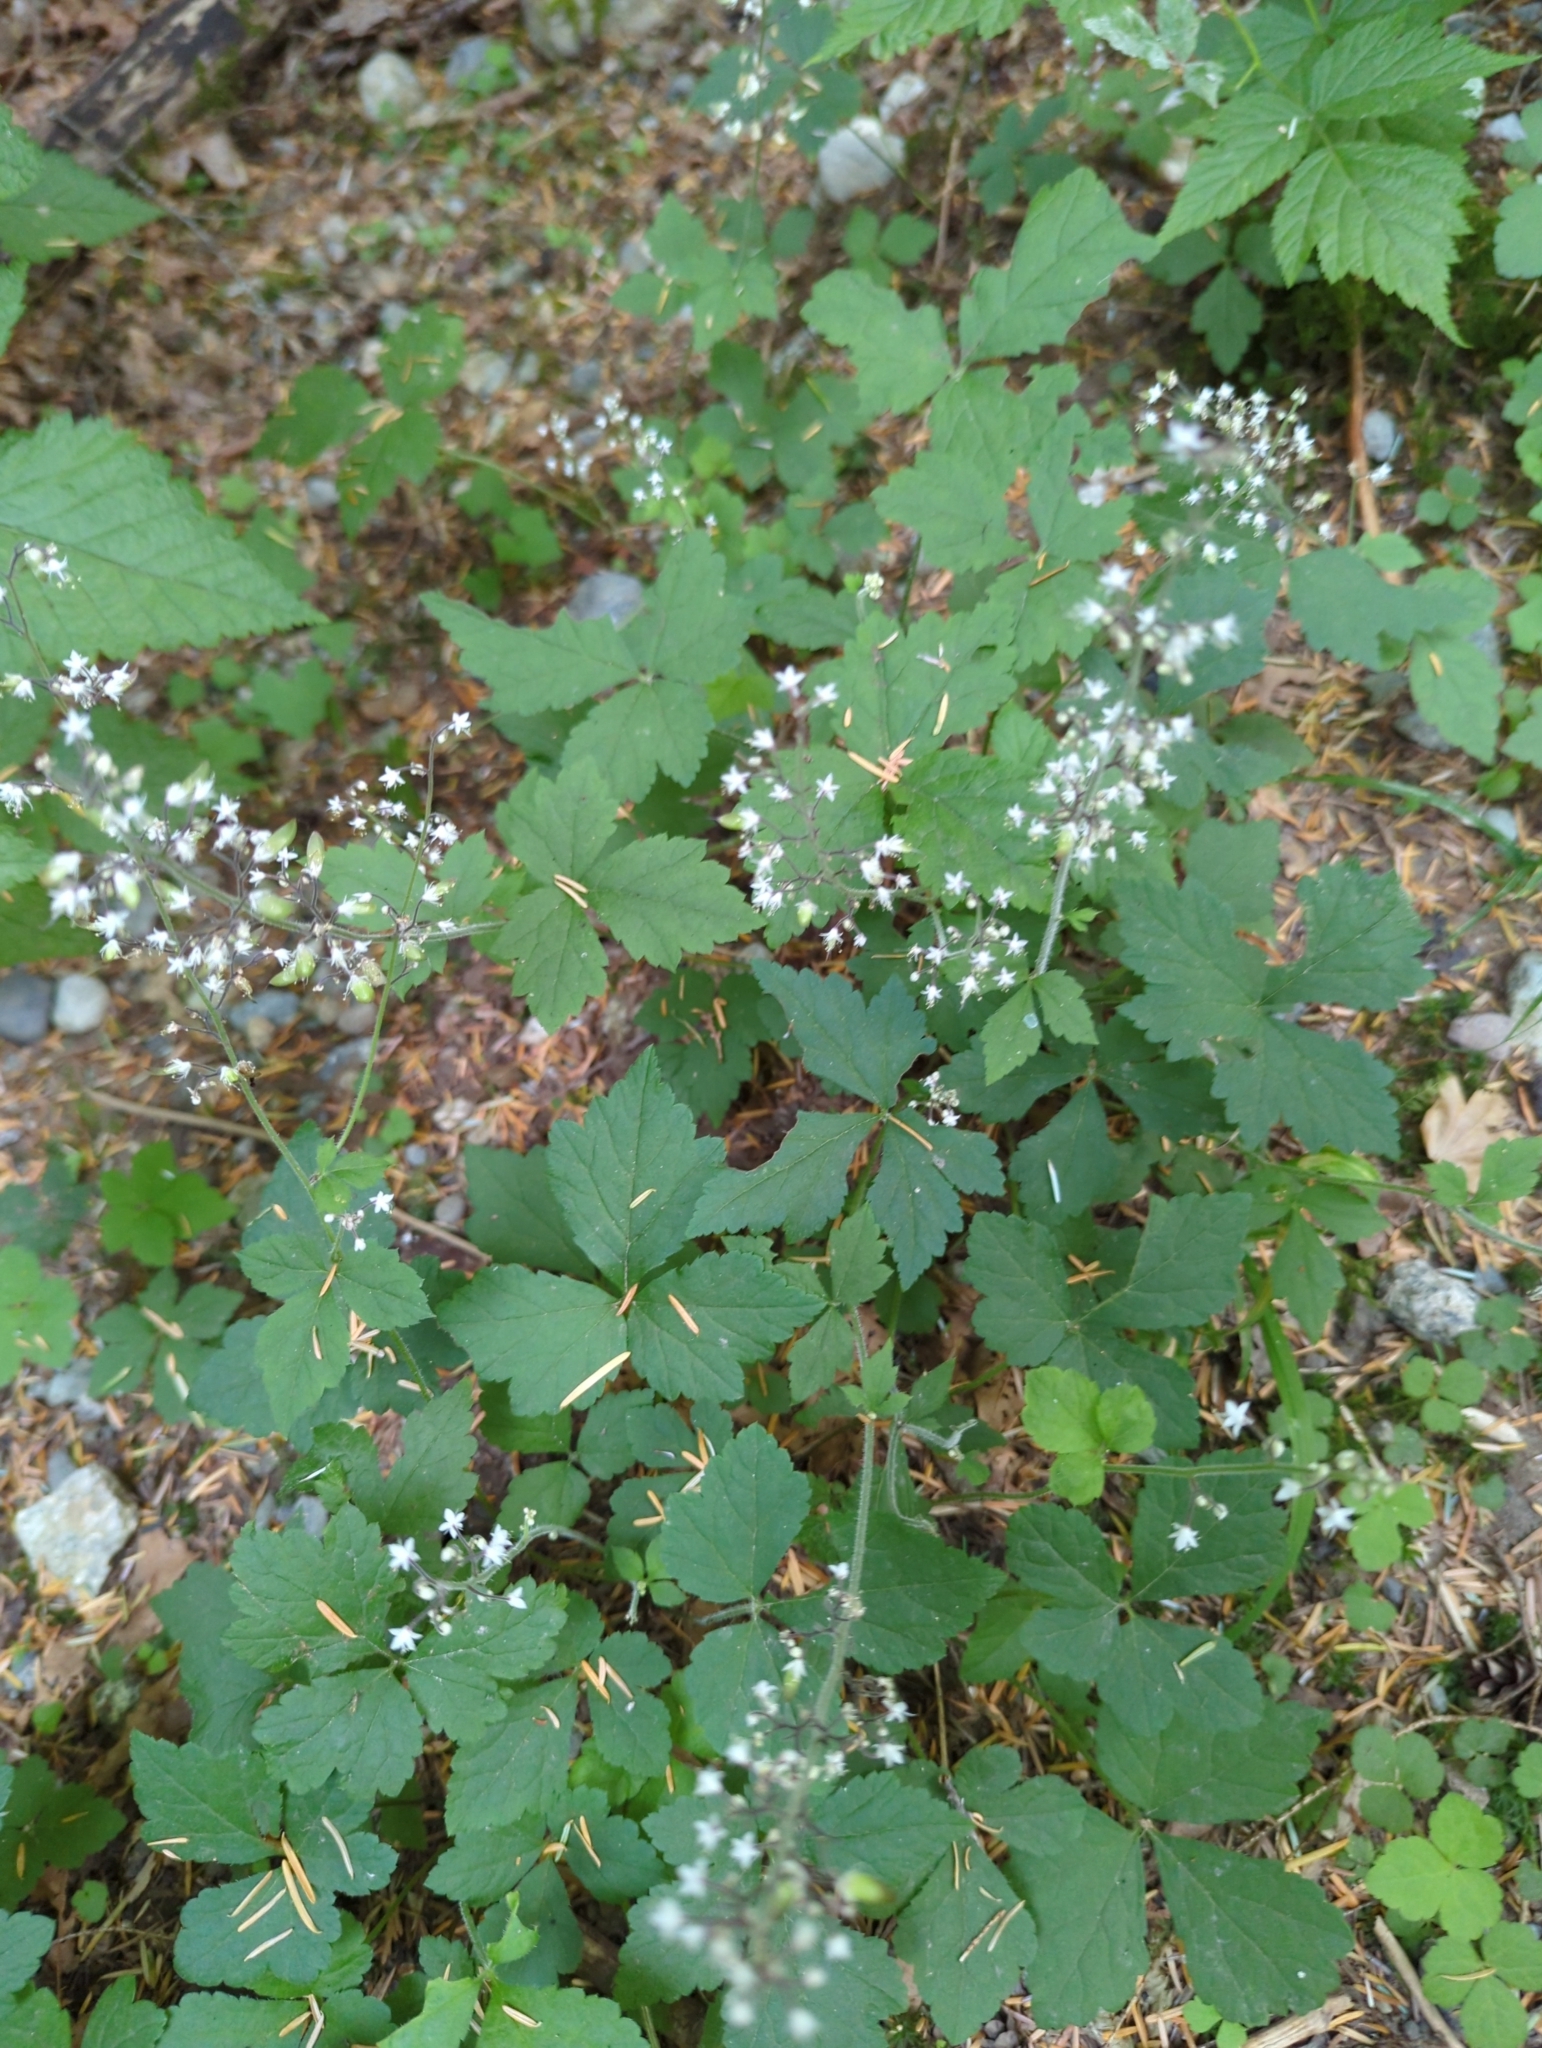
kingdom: Plantae
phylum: Tracheophyta
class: Magnoliopsida
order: Saxifragales
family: Saxifragaceae
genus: Tiarella
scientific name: Tiarella trifoliata
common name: Sugar-scoop
